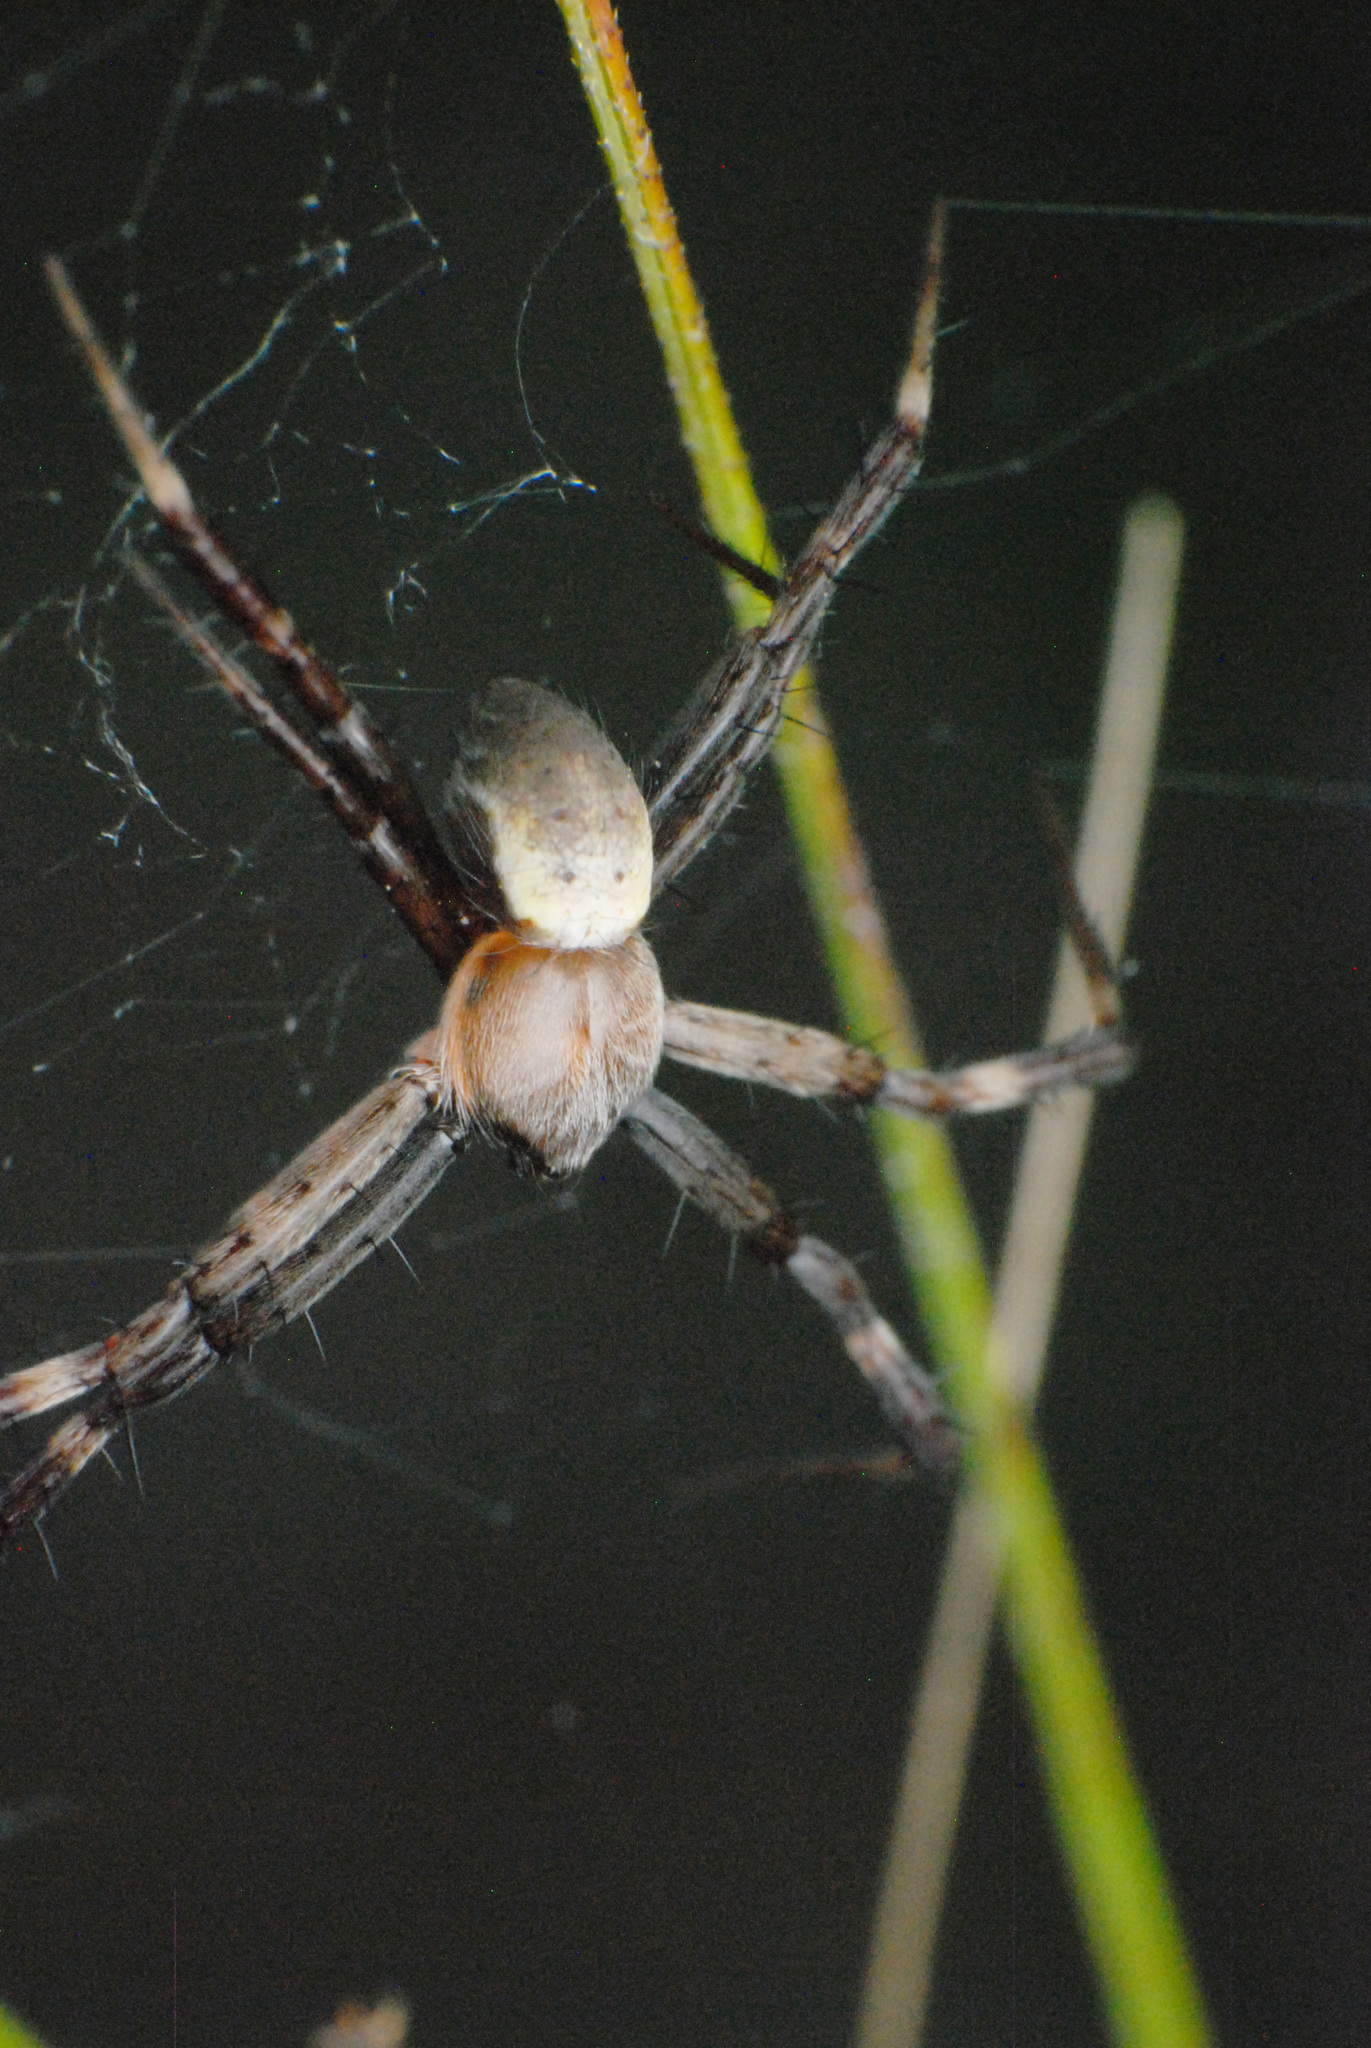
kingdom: Animalia
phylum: Arthropoda
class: Arachnida
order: Araneae
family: Araneidae
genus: Argiope
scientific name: Argiope keyserlingi
